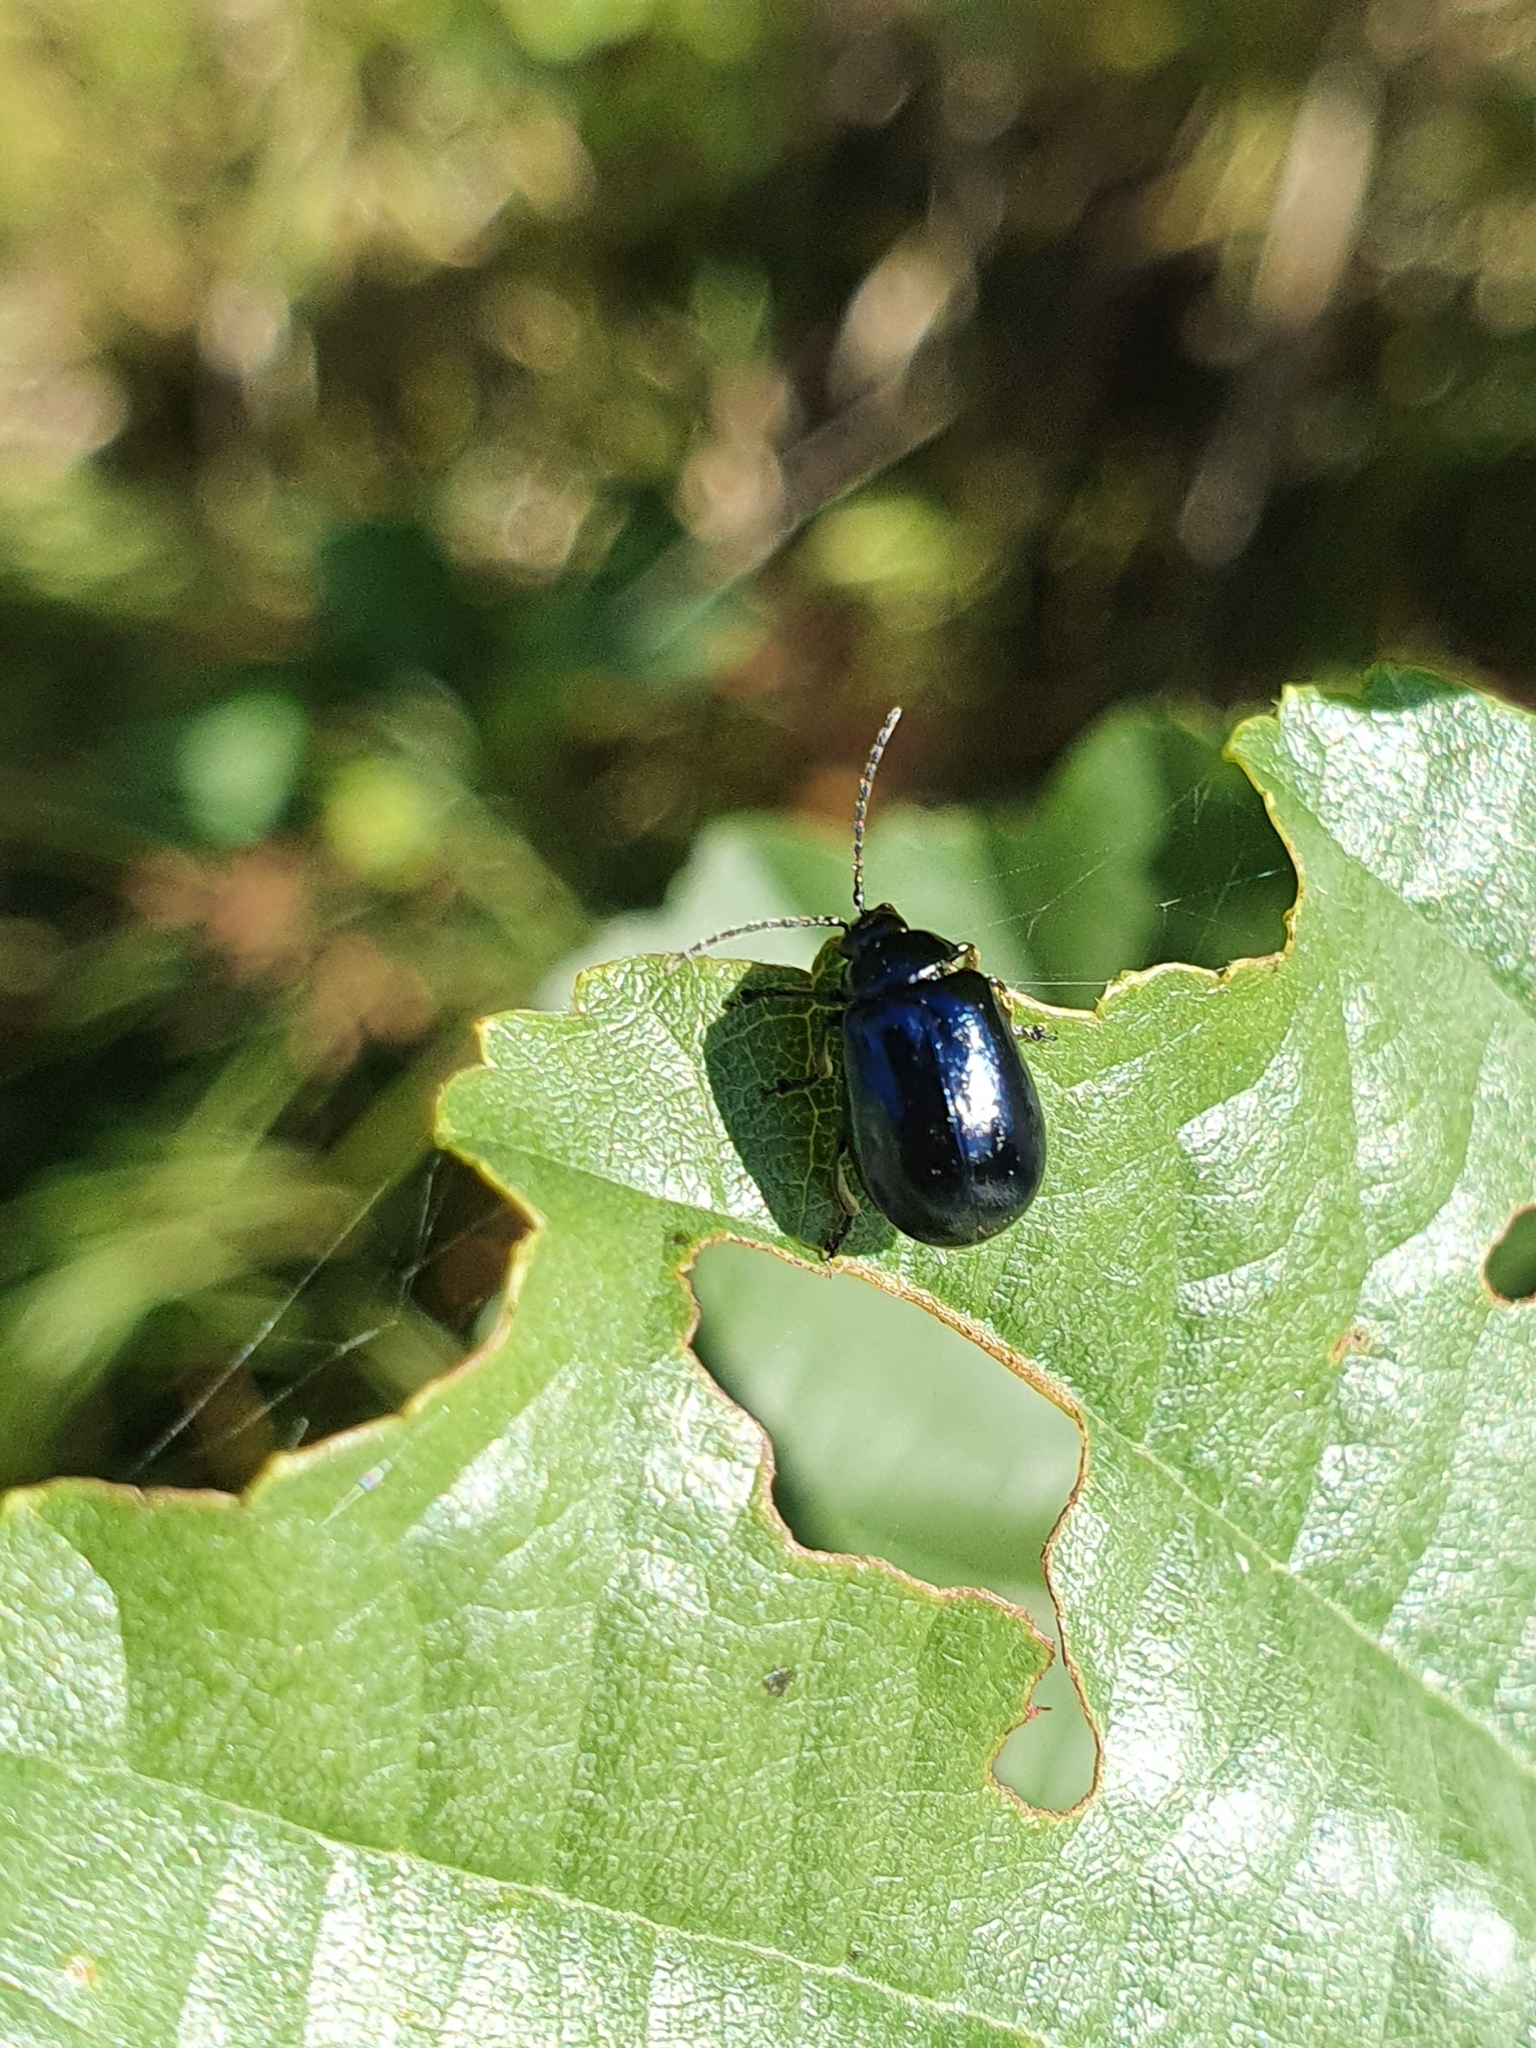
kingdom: Animalia
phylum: Arthropoda
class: Insecta
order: Coleoptera
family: Chrysomelidae
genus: Agelastica
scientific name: Agelastica alni
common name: Alder leaf beetle
